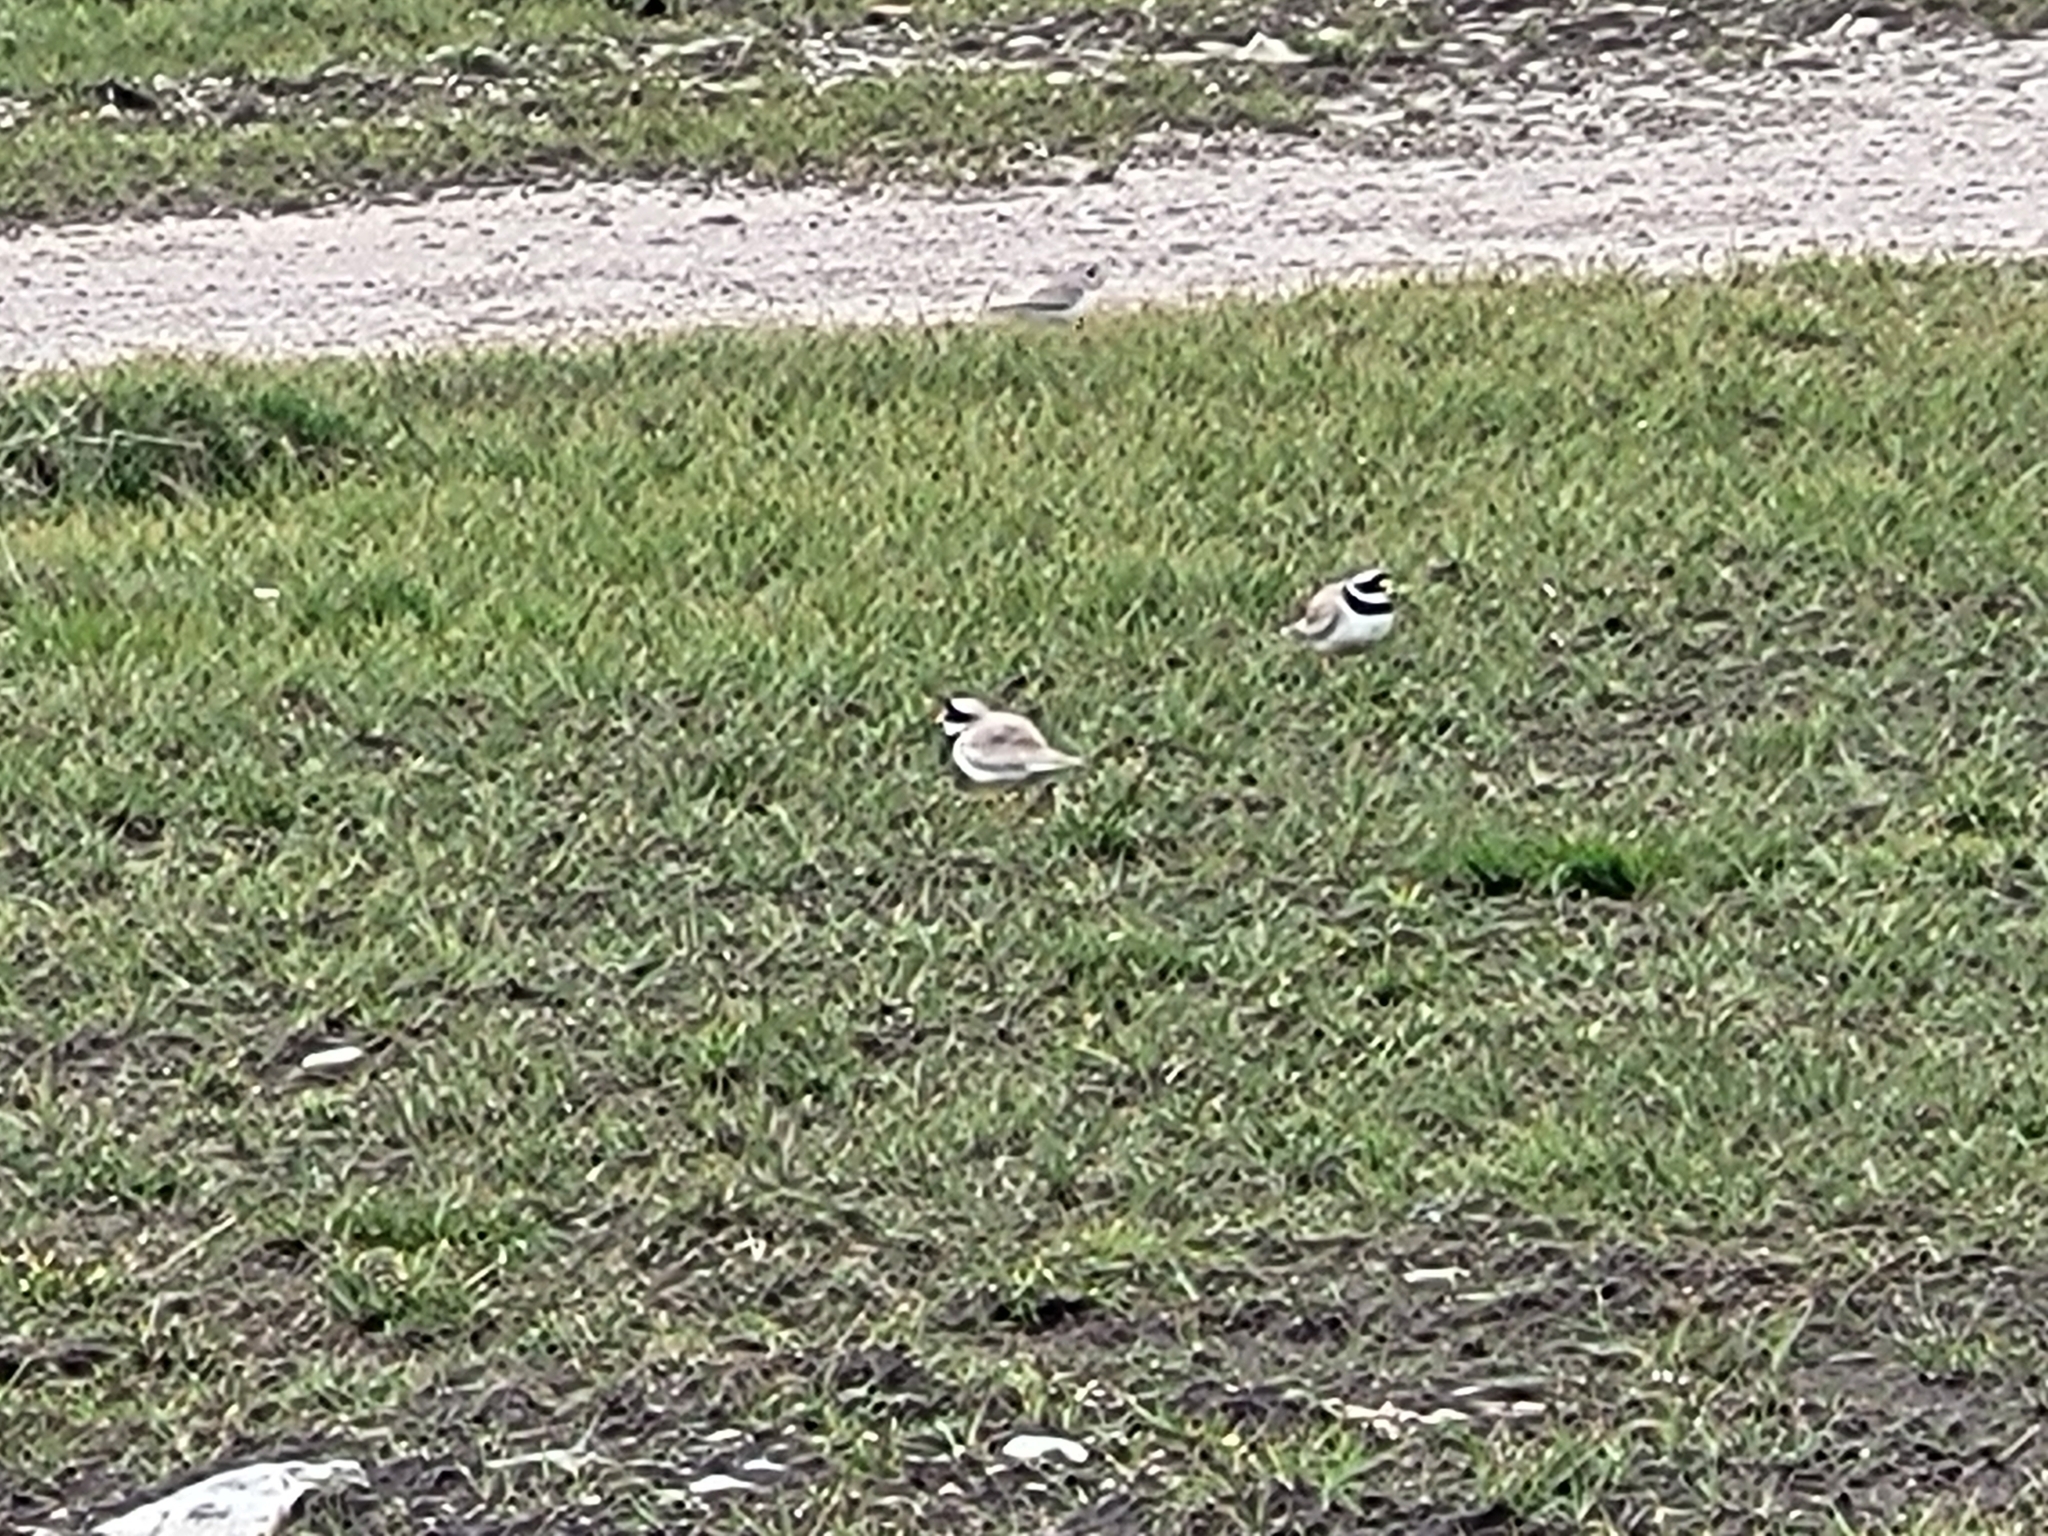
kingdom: Animalia
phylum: Chordata
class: Aves
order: Charadriiformes
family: Charadriidae
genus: Charadrius
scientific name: Charadrius hiaticula
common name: Common ringed plover
